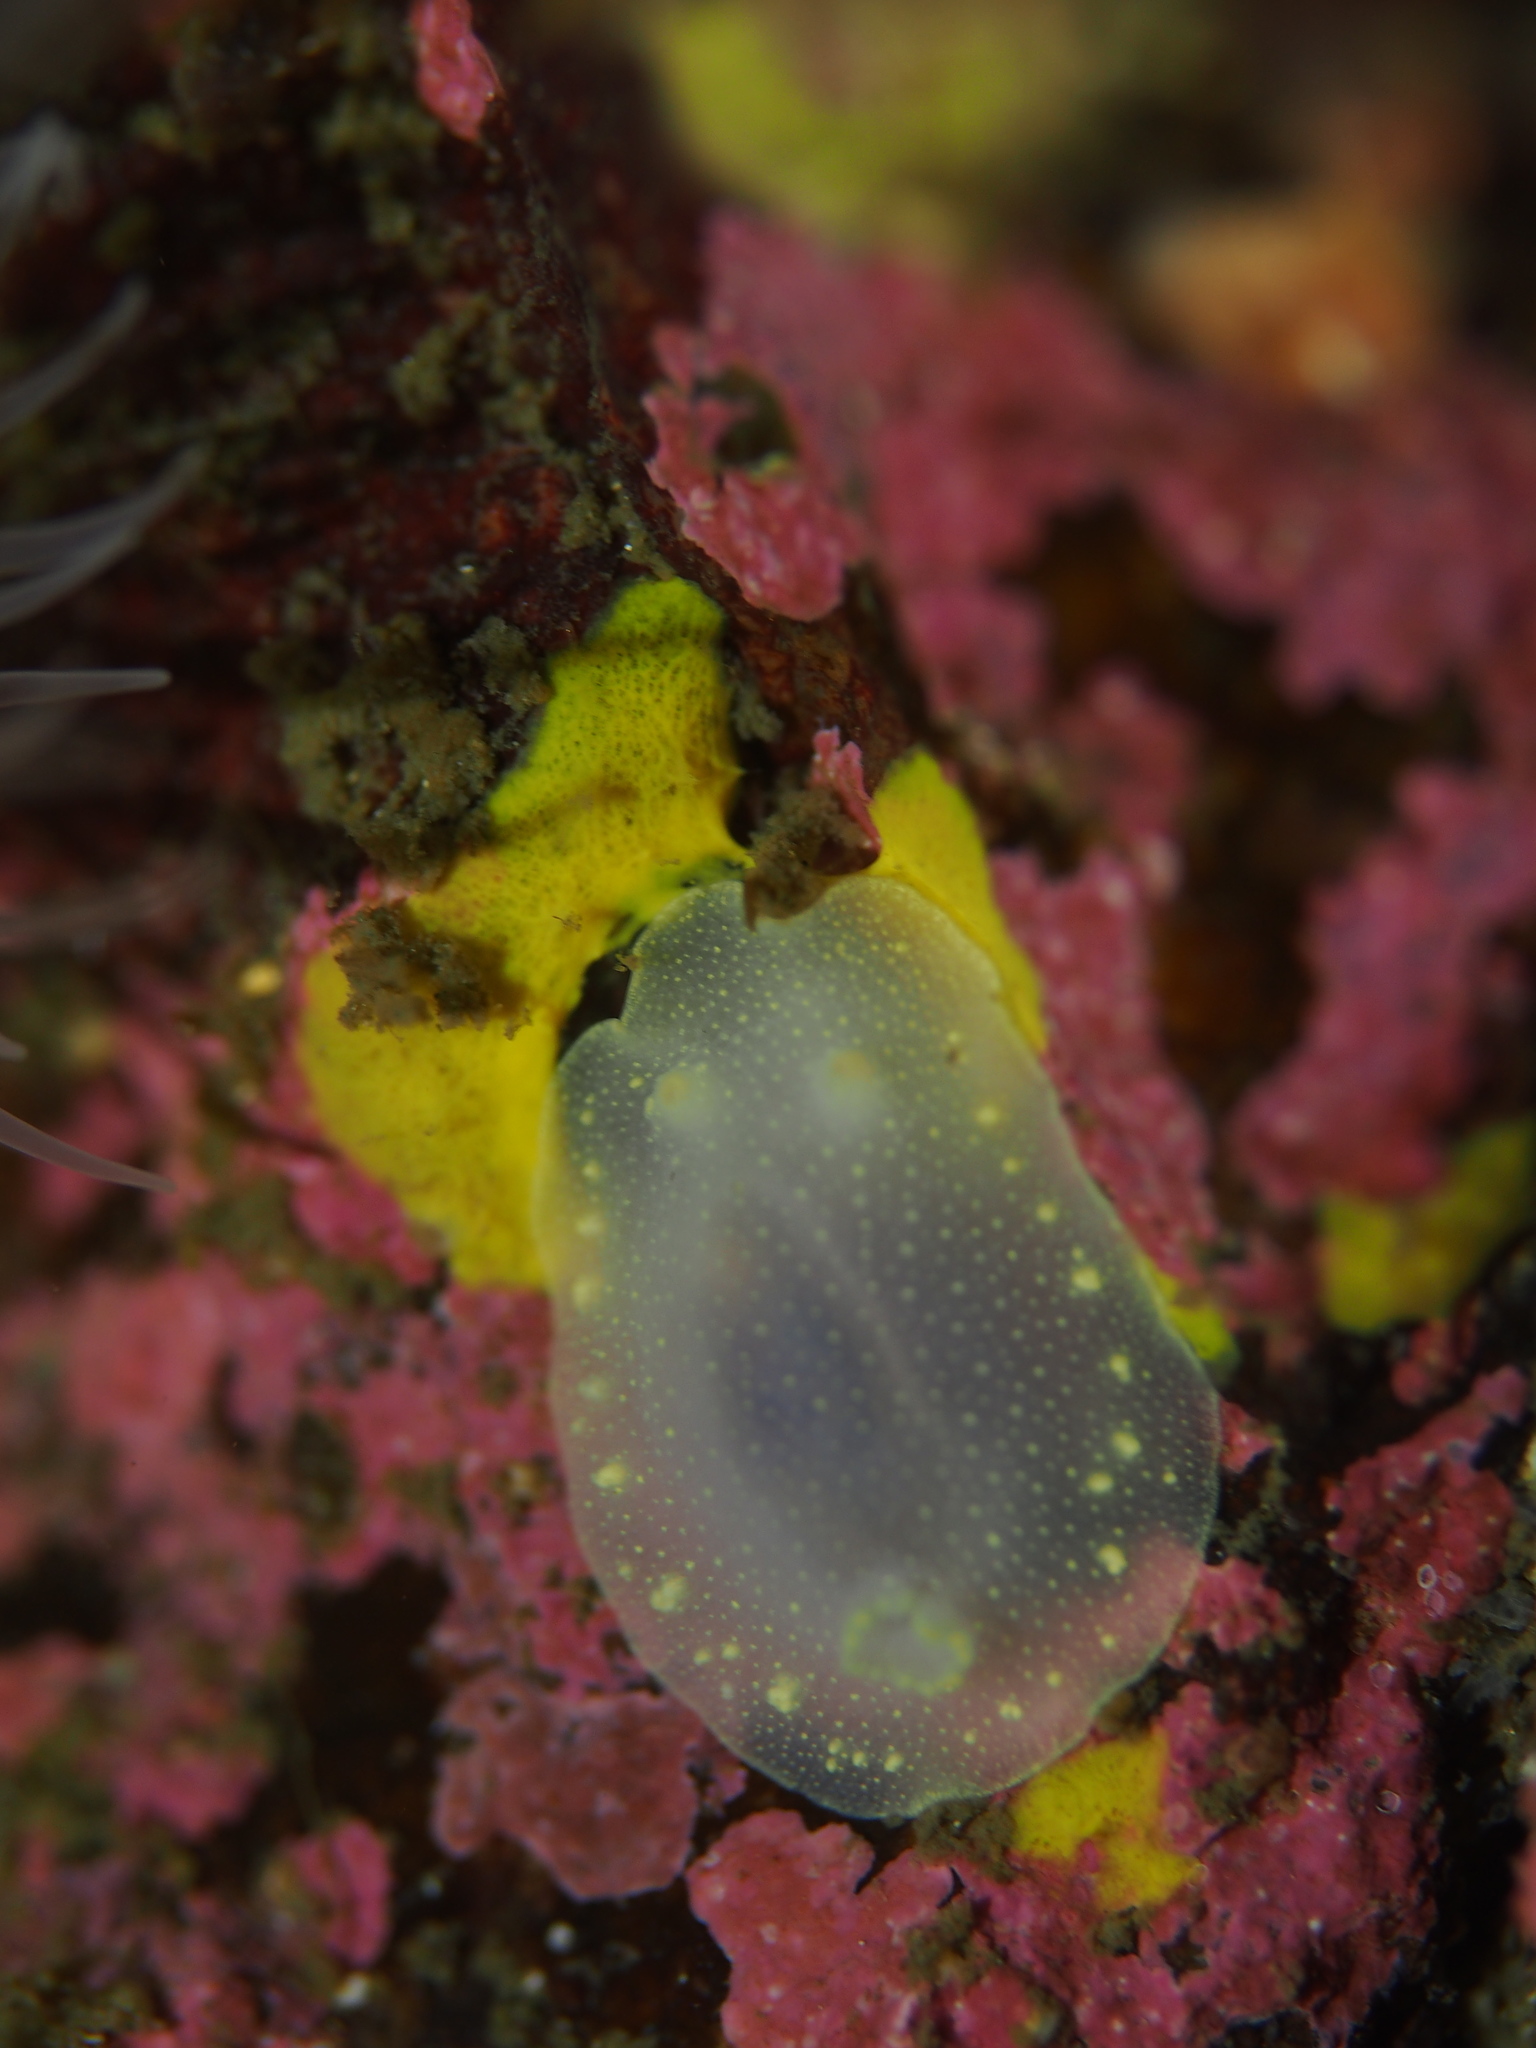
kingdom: Animalia
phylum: Mollusca
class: Gastropoda
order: Nudibranchia
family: Cadlinidae
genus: Cadlina
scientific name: Cadlina laevis
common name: White atlantic cadlina
